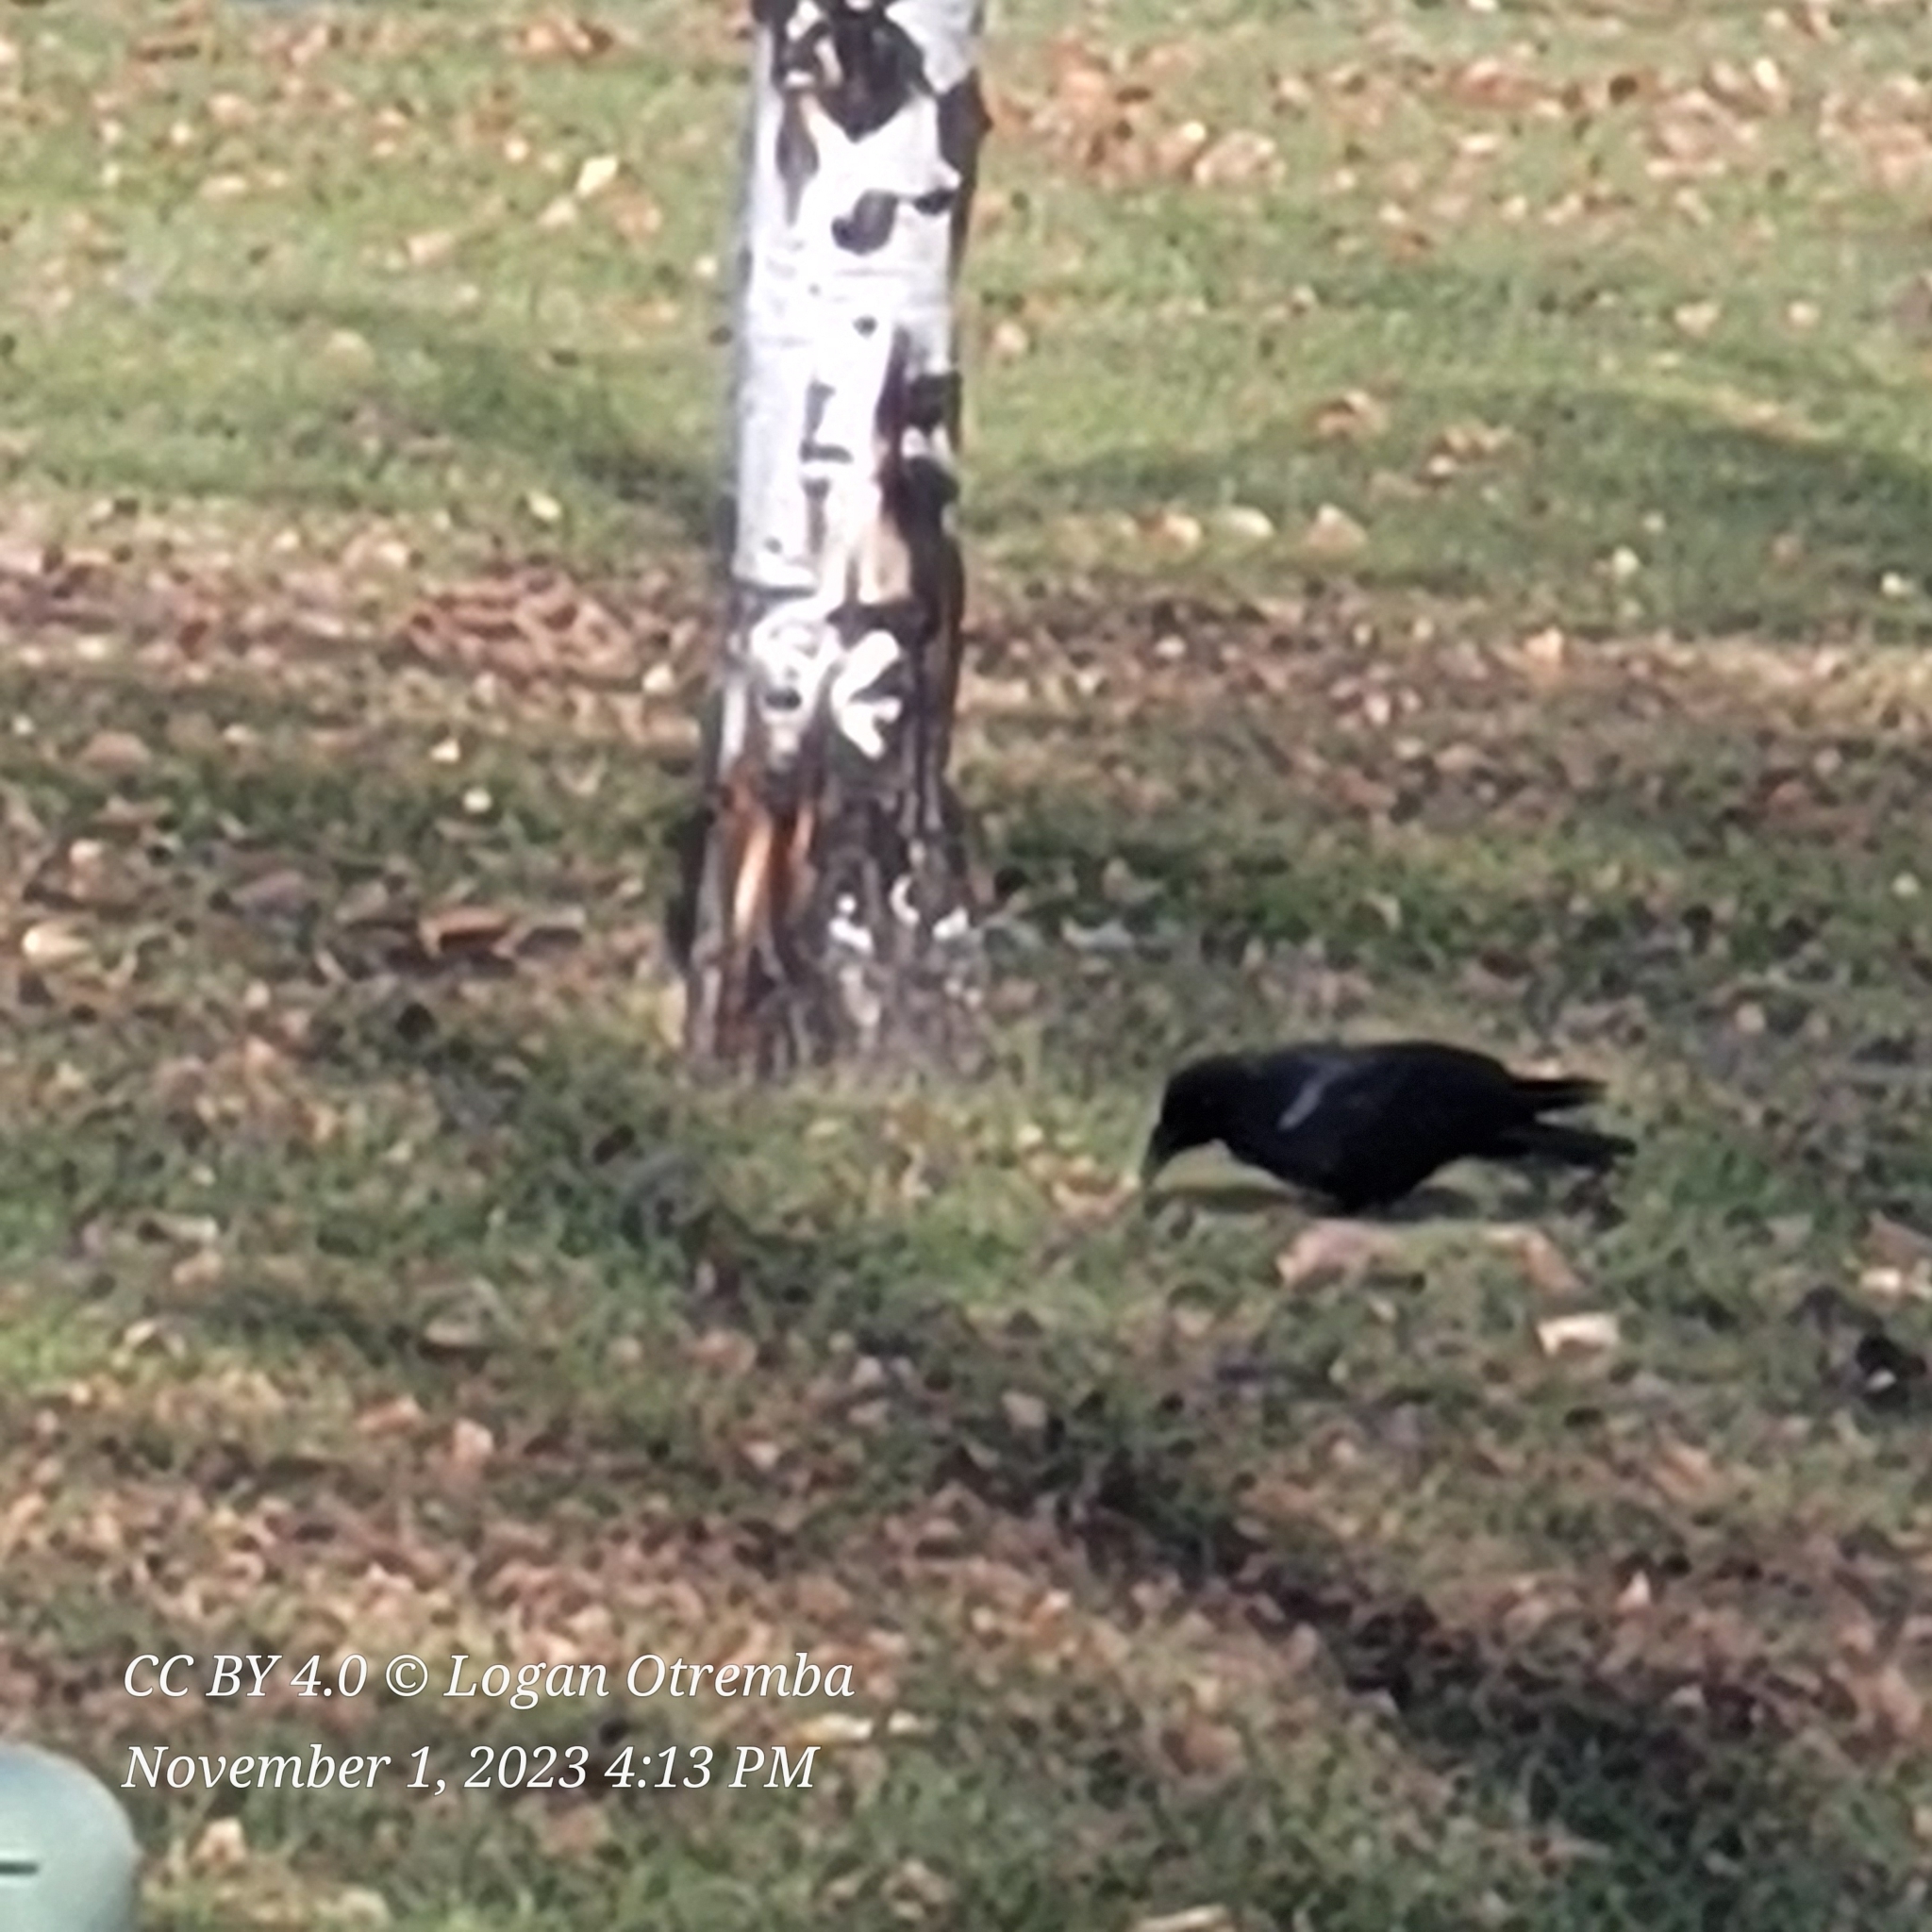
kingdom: Animalia
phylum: Chordata
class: Aves
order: Passeriformes
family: Corvidae
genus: Corvus
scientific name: Corvus brachyrhynchos
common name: American crow
